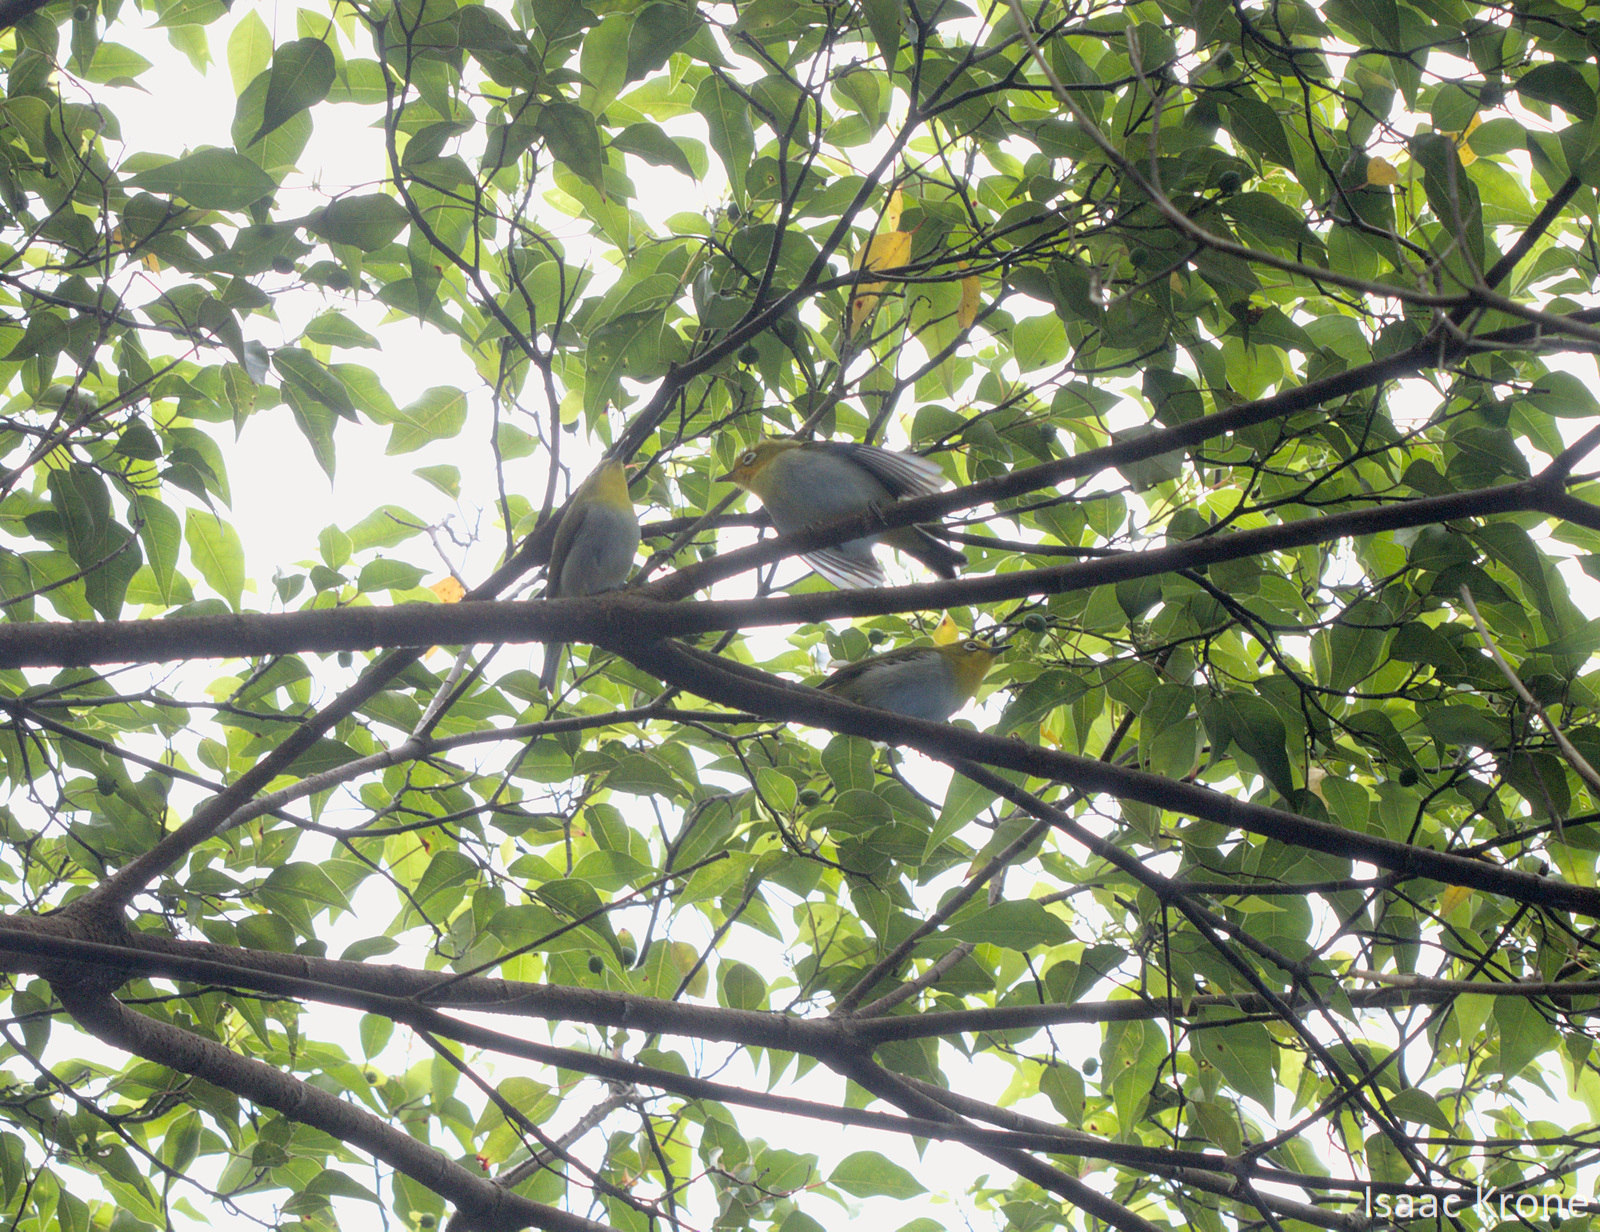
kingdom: Animalia
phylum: Chordata
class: Aves
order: Passeriformes
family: Zosteropidae
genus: Zosterops
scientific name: Zosterops japonicus
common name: Japanese white-eye
